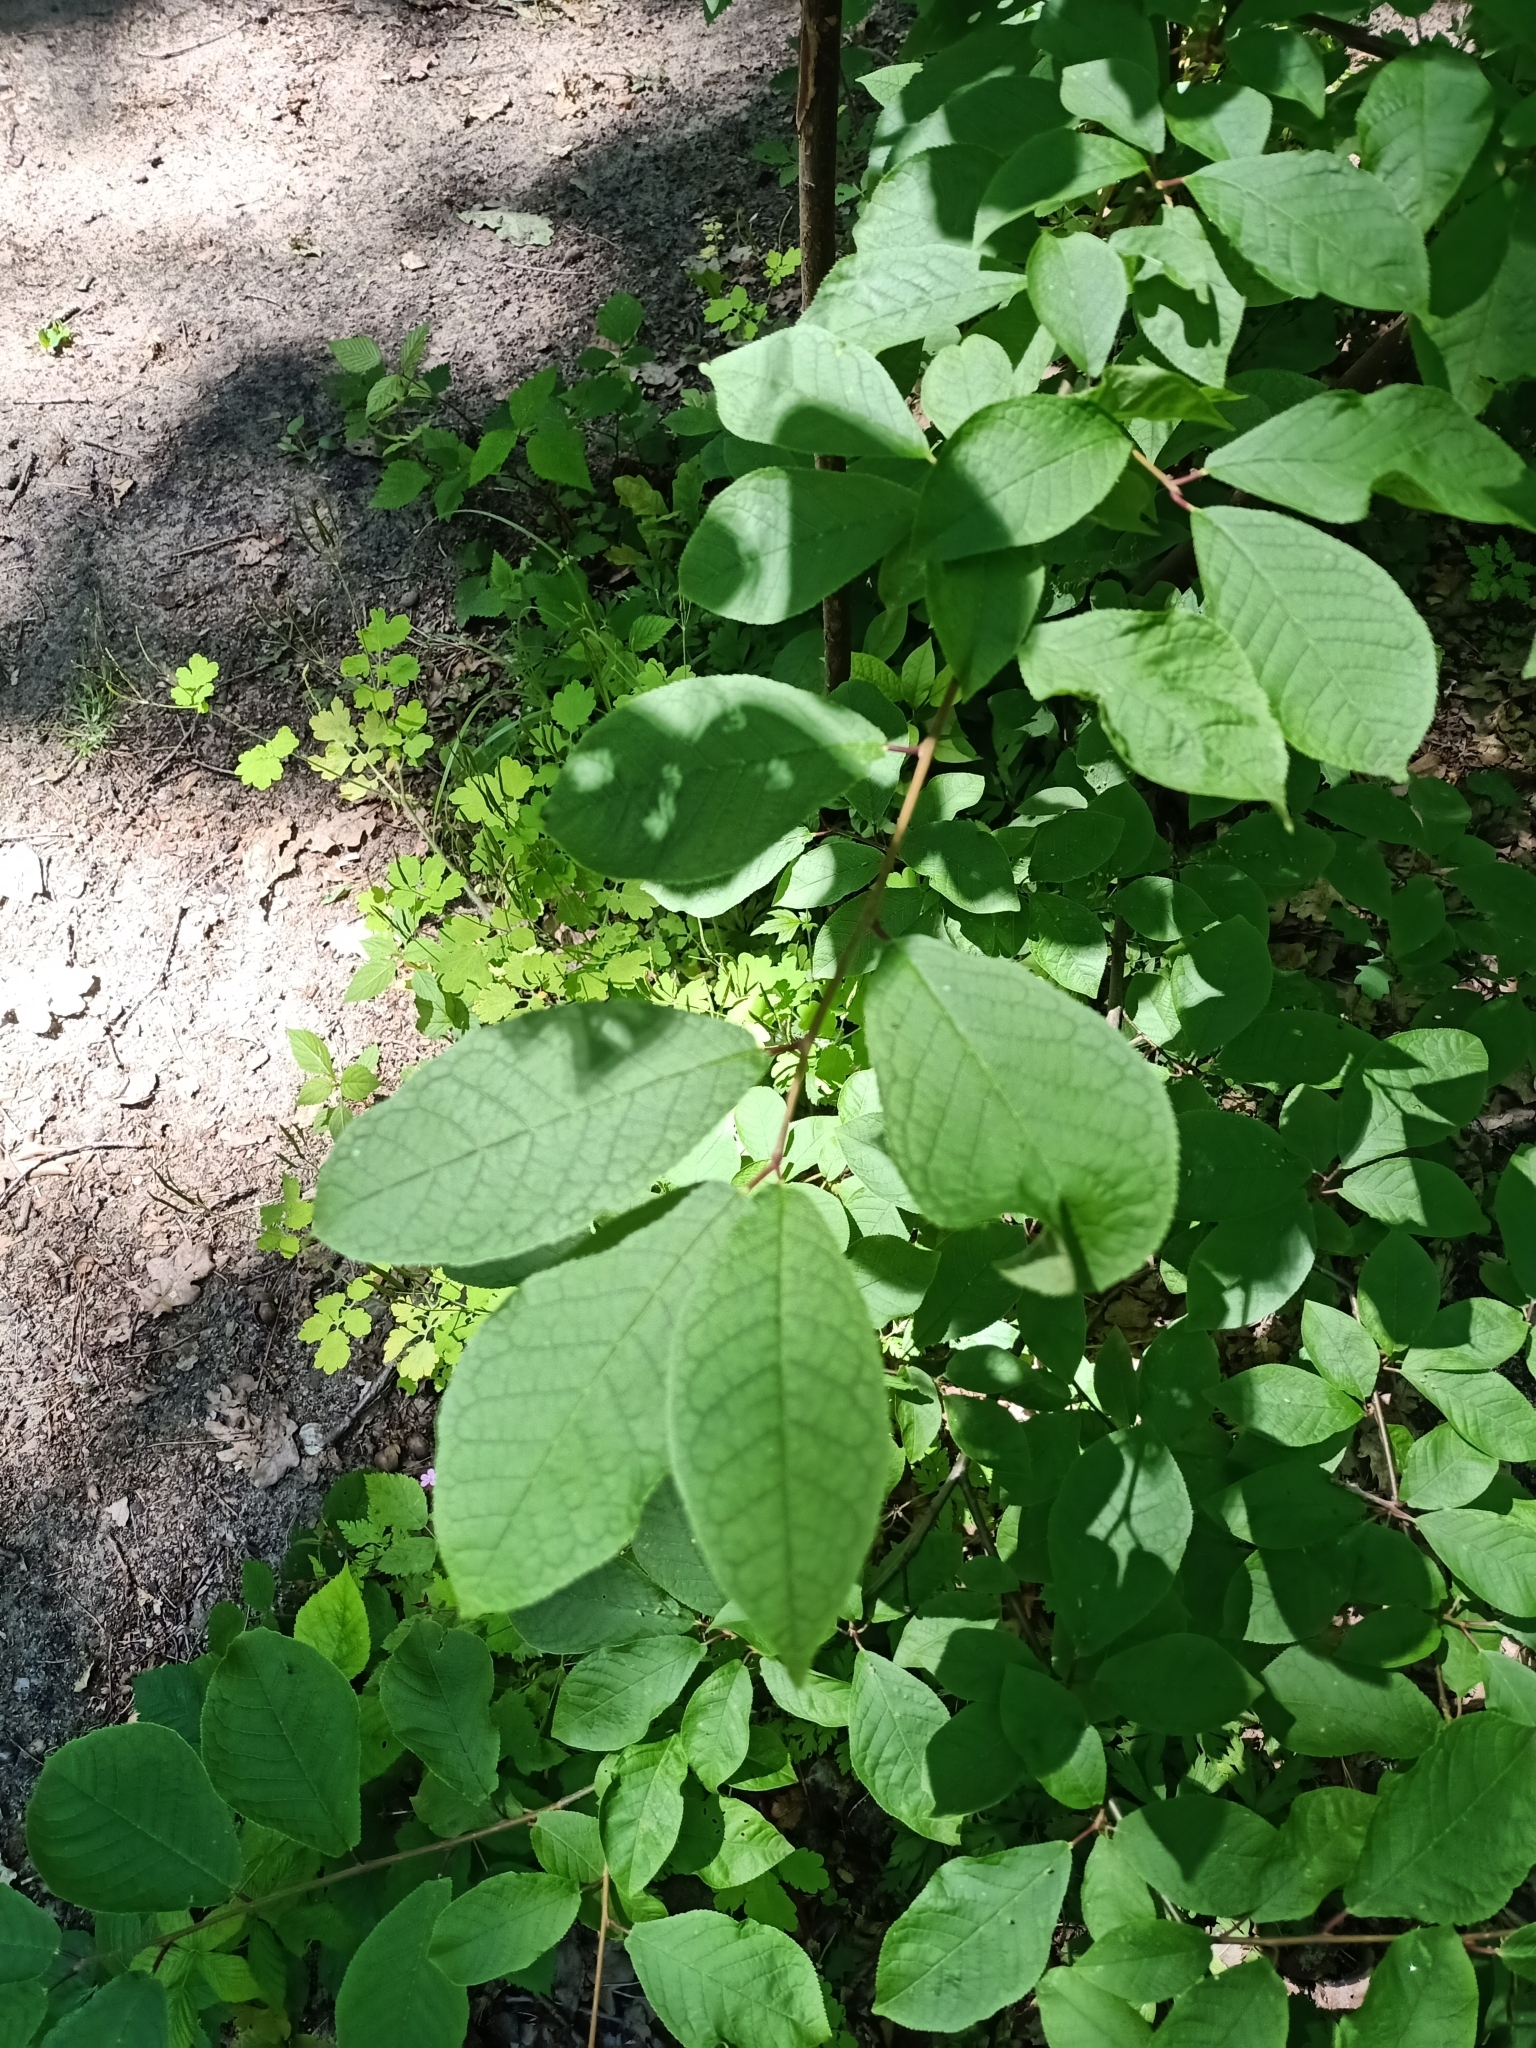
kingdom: Plantae
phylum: Tracheophyta
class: Magnoliopsida
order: Rosales
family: Rosaceae
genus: Prunus
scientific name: Prunus padus
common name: Bird cherry
